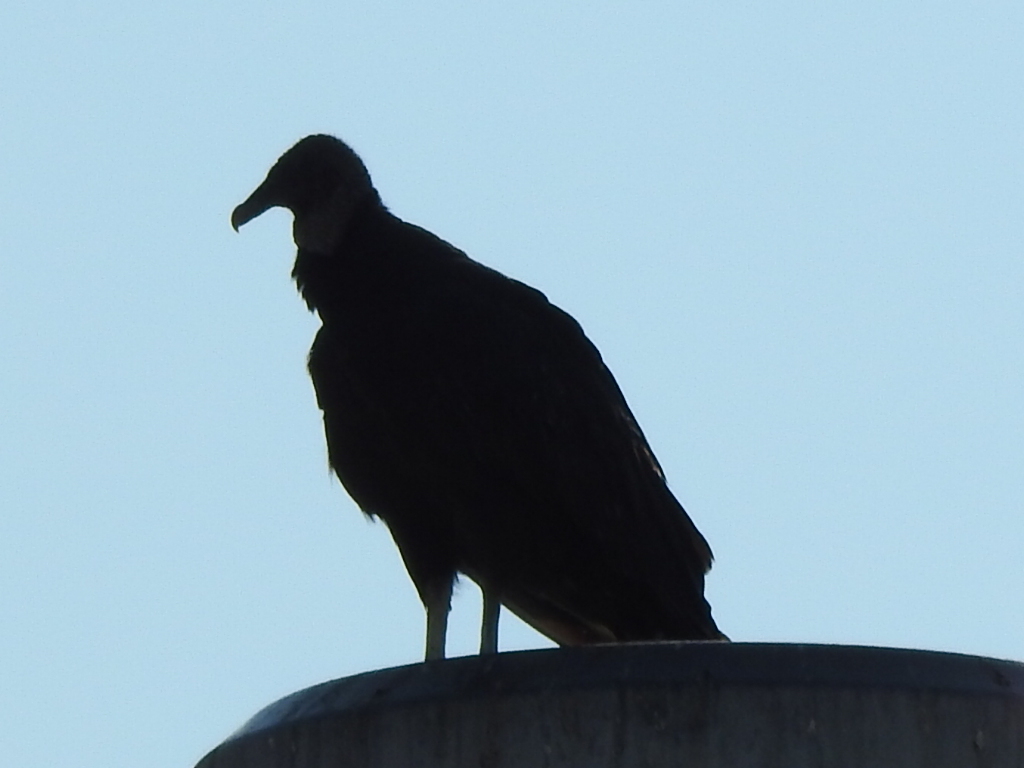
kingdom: Animalia
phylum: Chordata
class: Aves
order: Accipitriformes
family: Cathartidae
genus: Coragyps
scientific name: Coragyps atratus
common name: Black vulture
